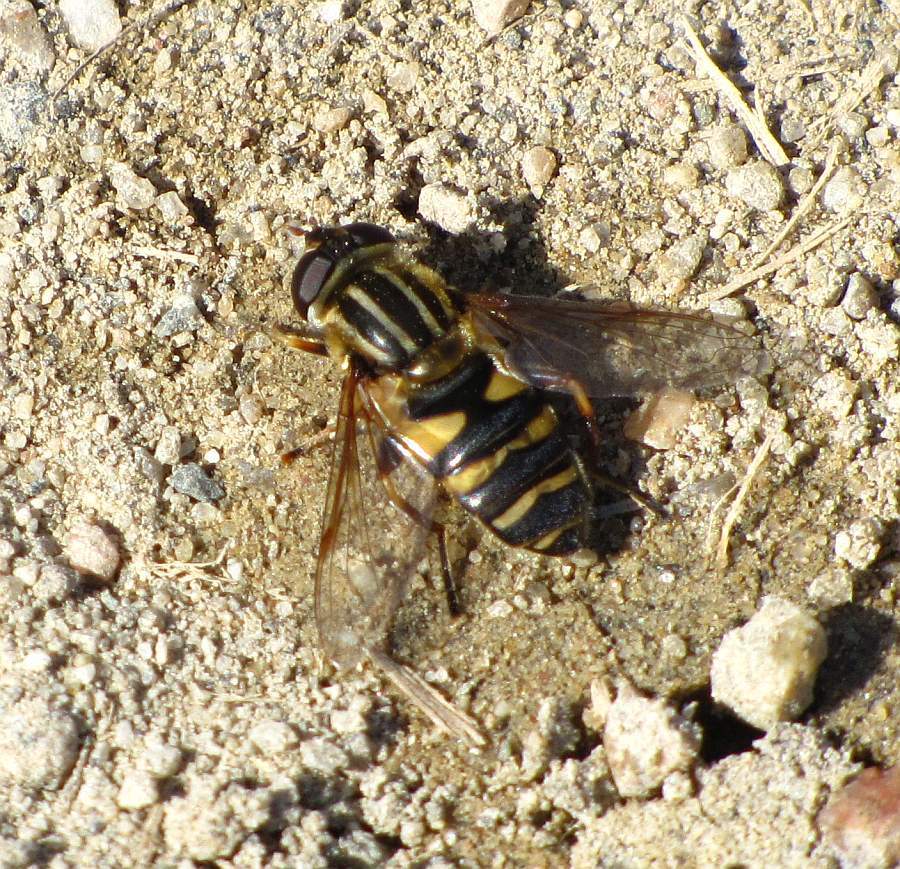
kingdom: Animalia
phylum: Arthropoda
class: Insecta
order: Diptera
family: Syrphidae
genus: Helophilus
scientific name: Helophilus fasciatus
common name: Narrow-headed marsh fly
